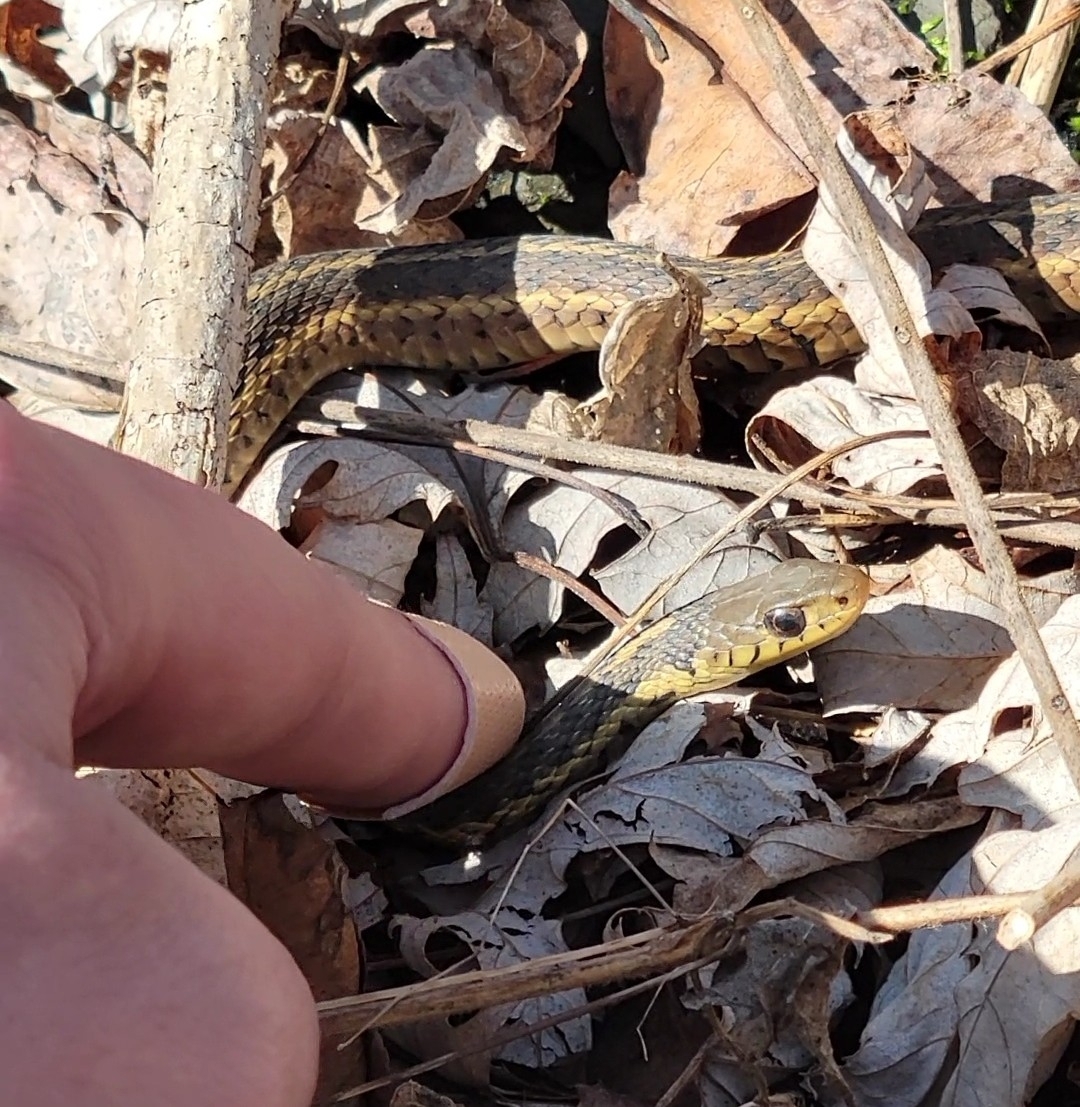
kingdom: Animalia
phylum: Chordata
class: Squamata
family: Colubridae
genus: Thamnophis
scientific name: Thamnophis sirtalis
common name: Common garter snake
